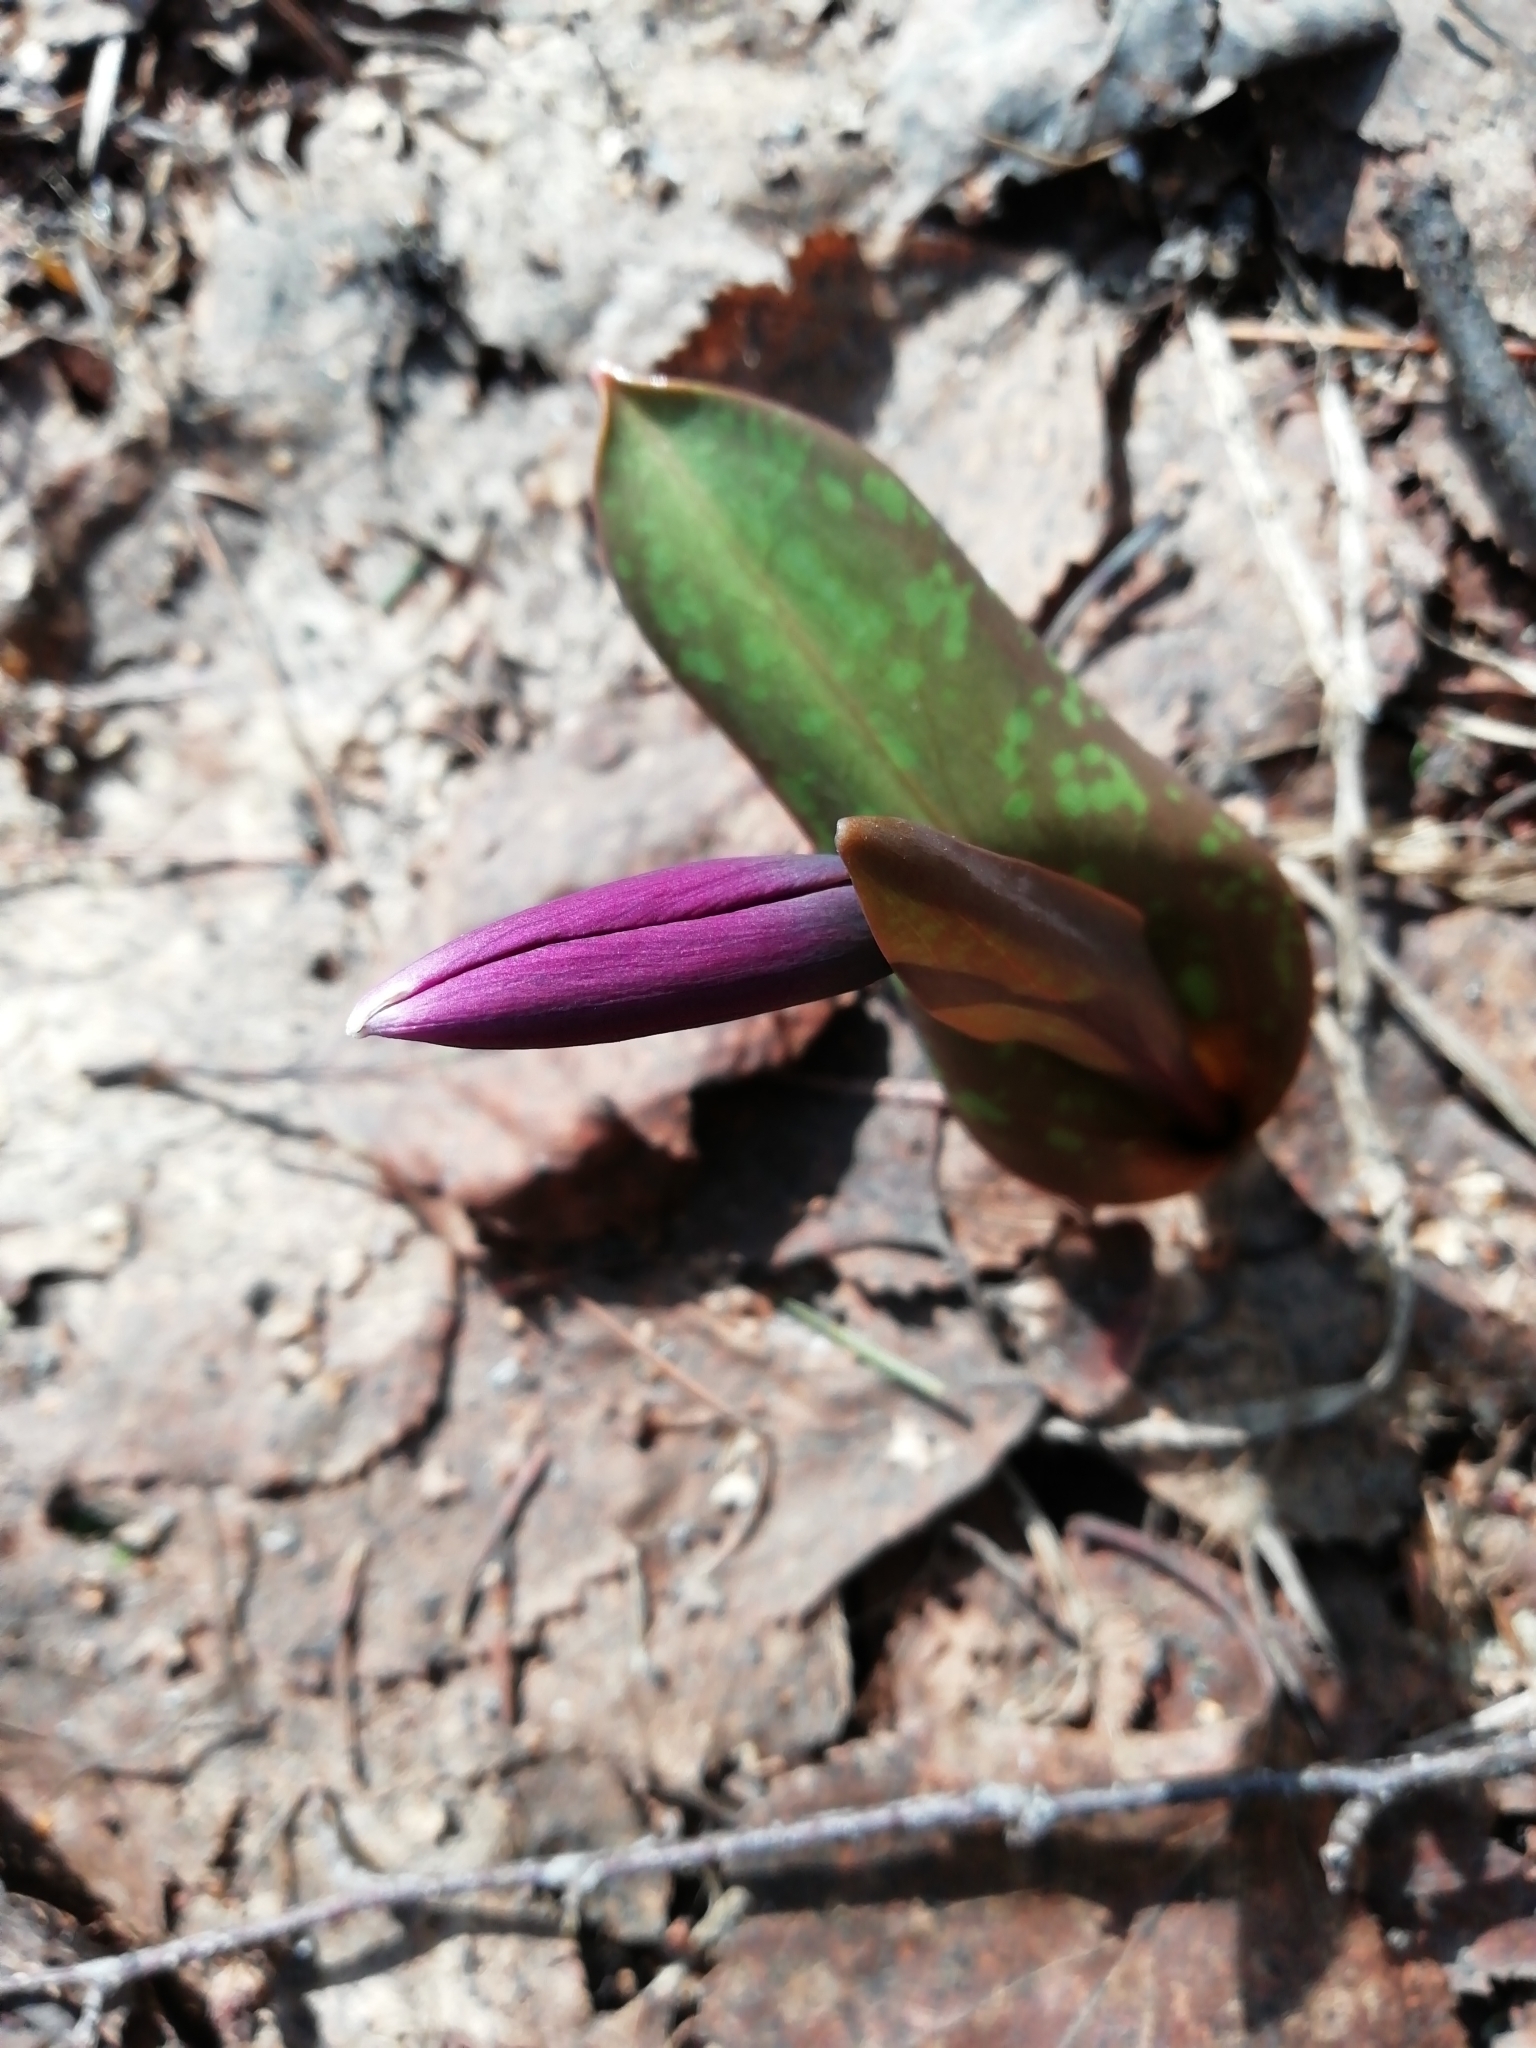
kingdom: Plantae
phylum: Tracheophyta
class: Liliopsida
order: Liliales
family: Liliaceae
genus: Erythronium
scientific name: Erythronium sibiricum
